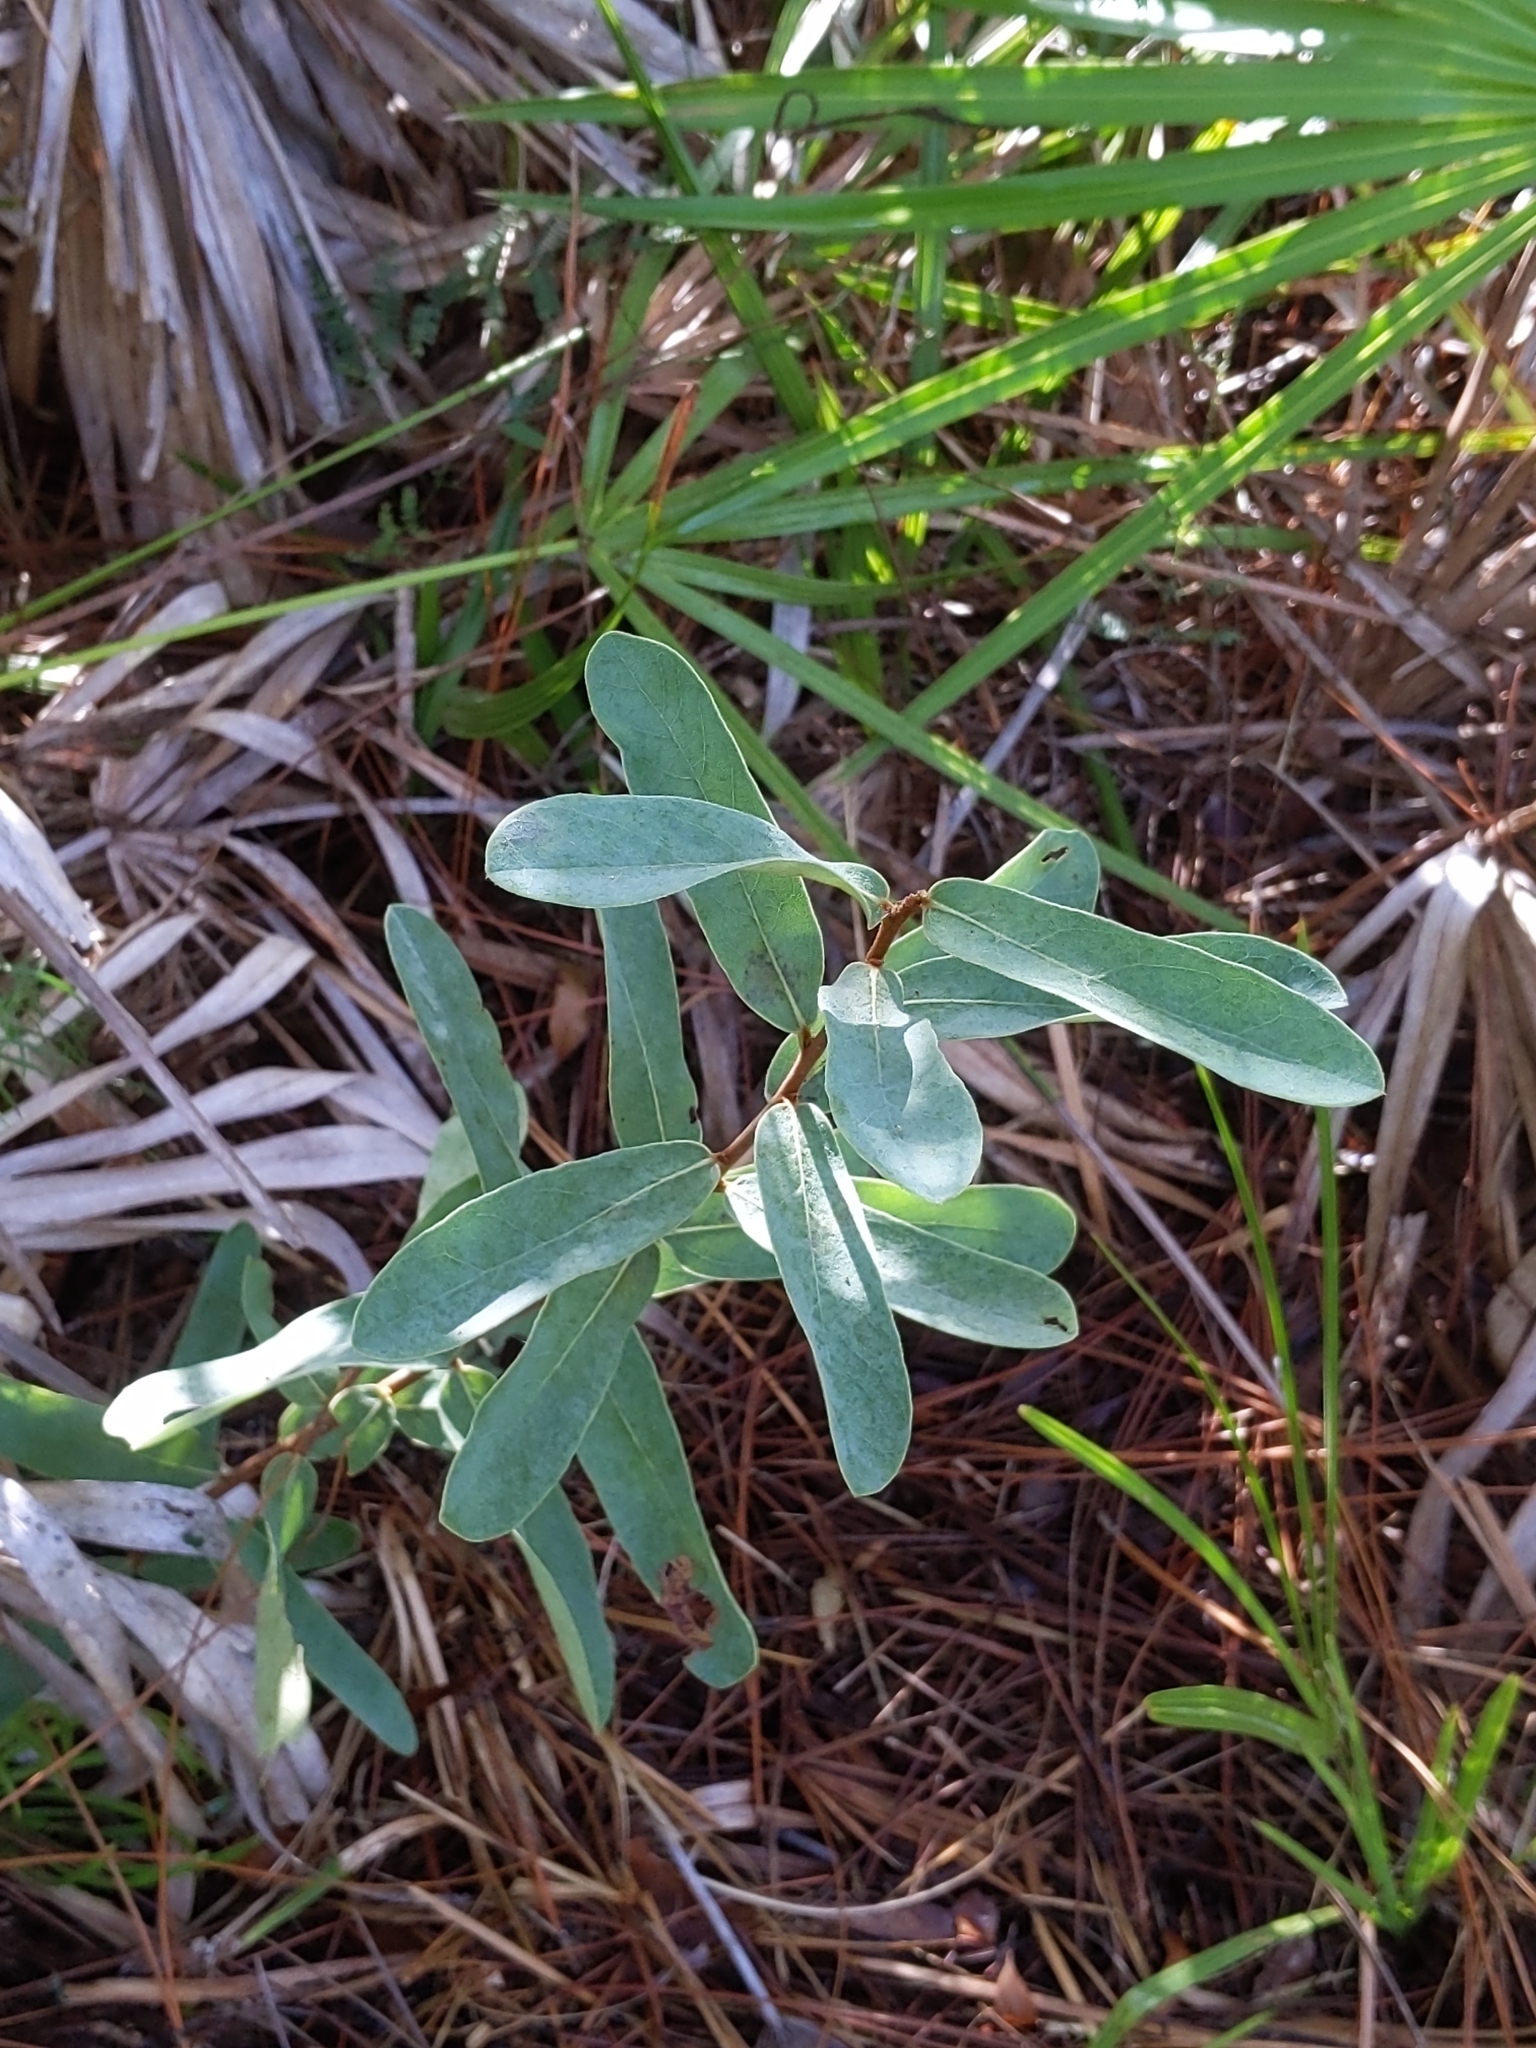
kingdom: Plantae
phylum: Tracheophyta
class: Magnoliopsida
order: Magnoliales
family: Annonaceae
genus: Asimina
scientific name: Asimina reticulata
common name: Flag pawpaw
